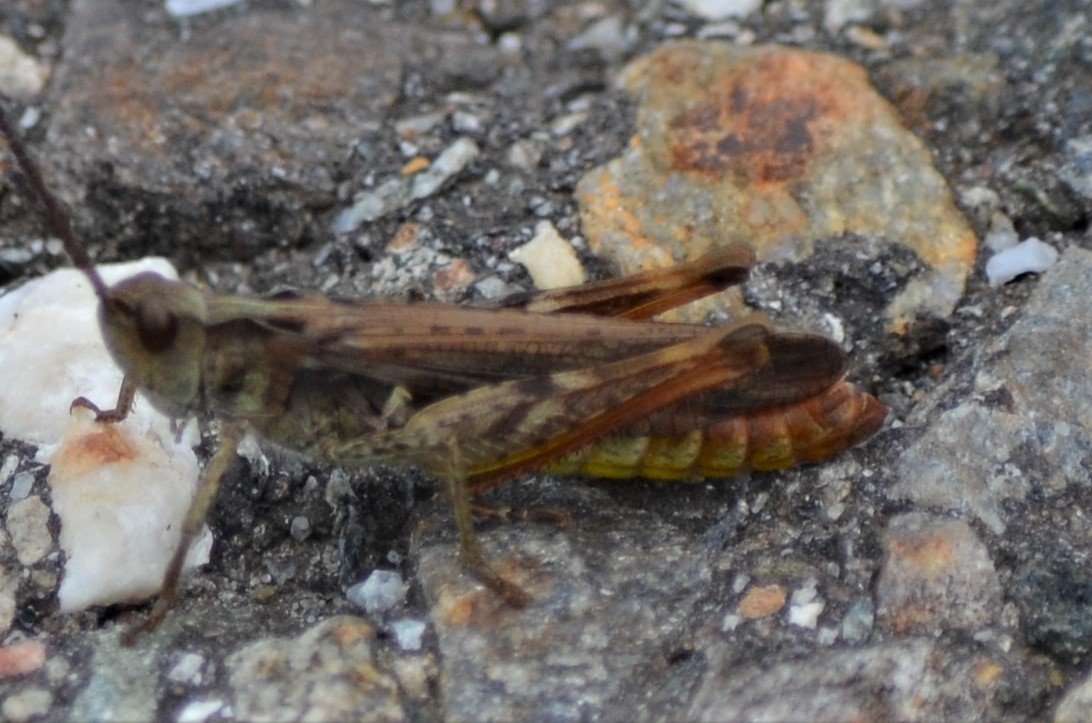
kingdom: Animalia
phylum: Arthropoda
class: Insecta
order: Orthoptera
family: Acrididae
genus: Chorthippus
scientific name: Chorthippus biguttulus
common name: Bow-winged grasshopper
